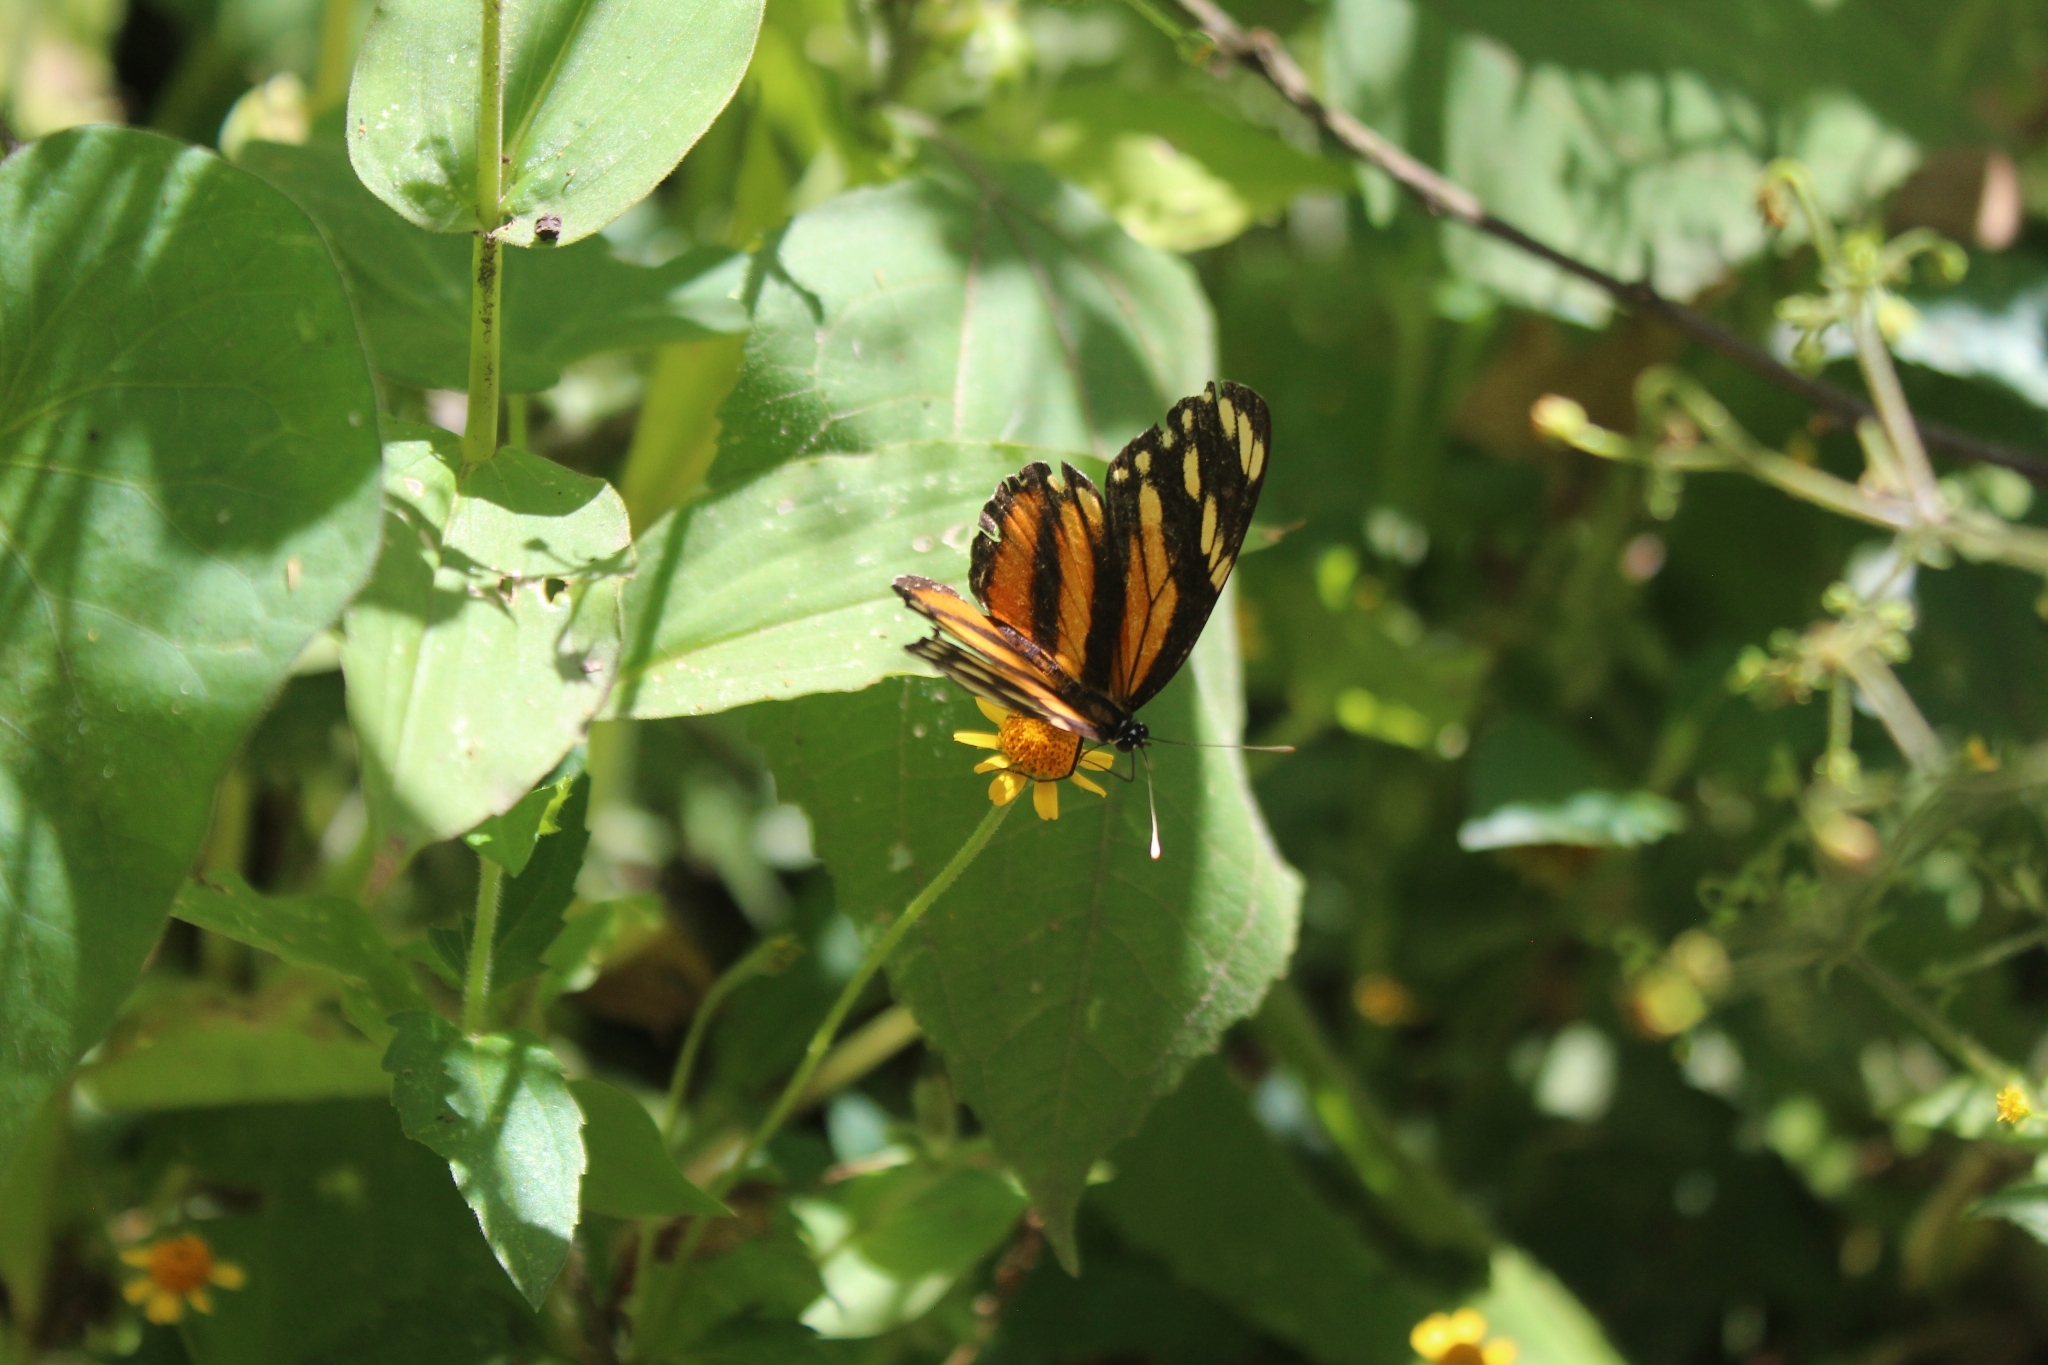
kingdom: Animalia
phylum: Arthropoda
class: Insecta
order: Lepidoptera
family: Nymphalidae
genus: Eresia
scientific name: Eresia phillyra
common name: Longwing crescent
